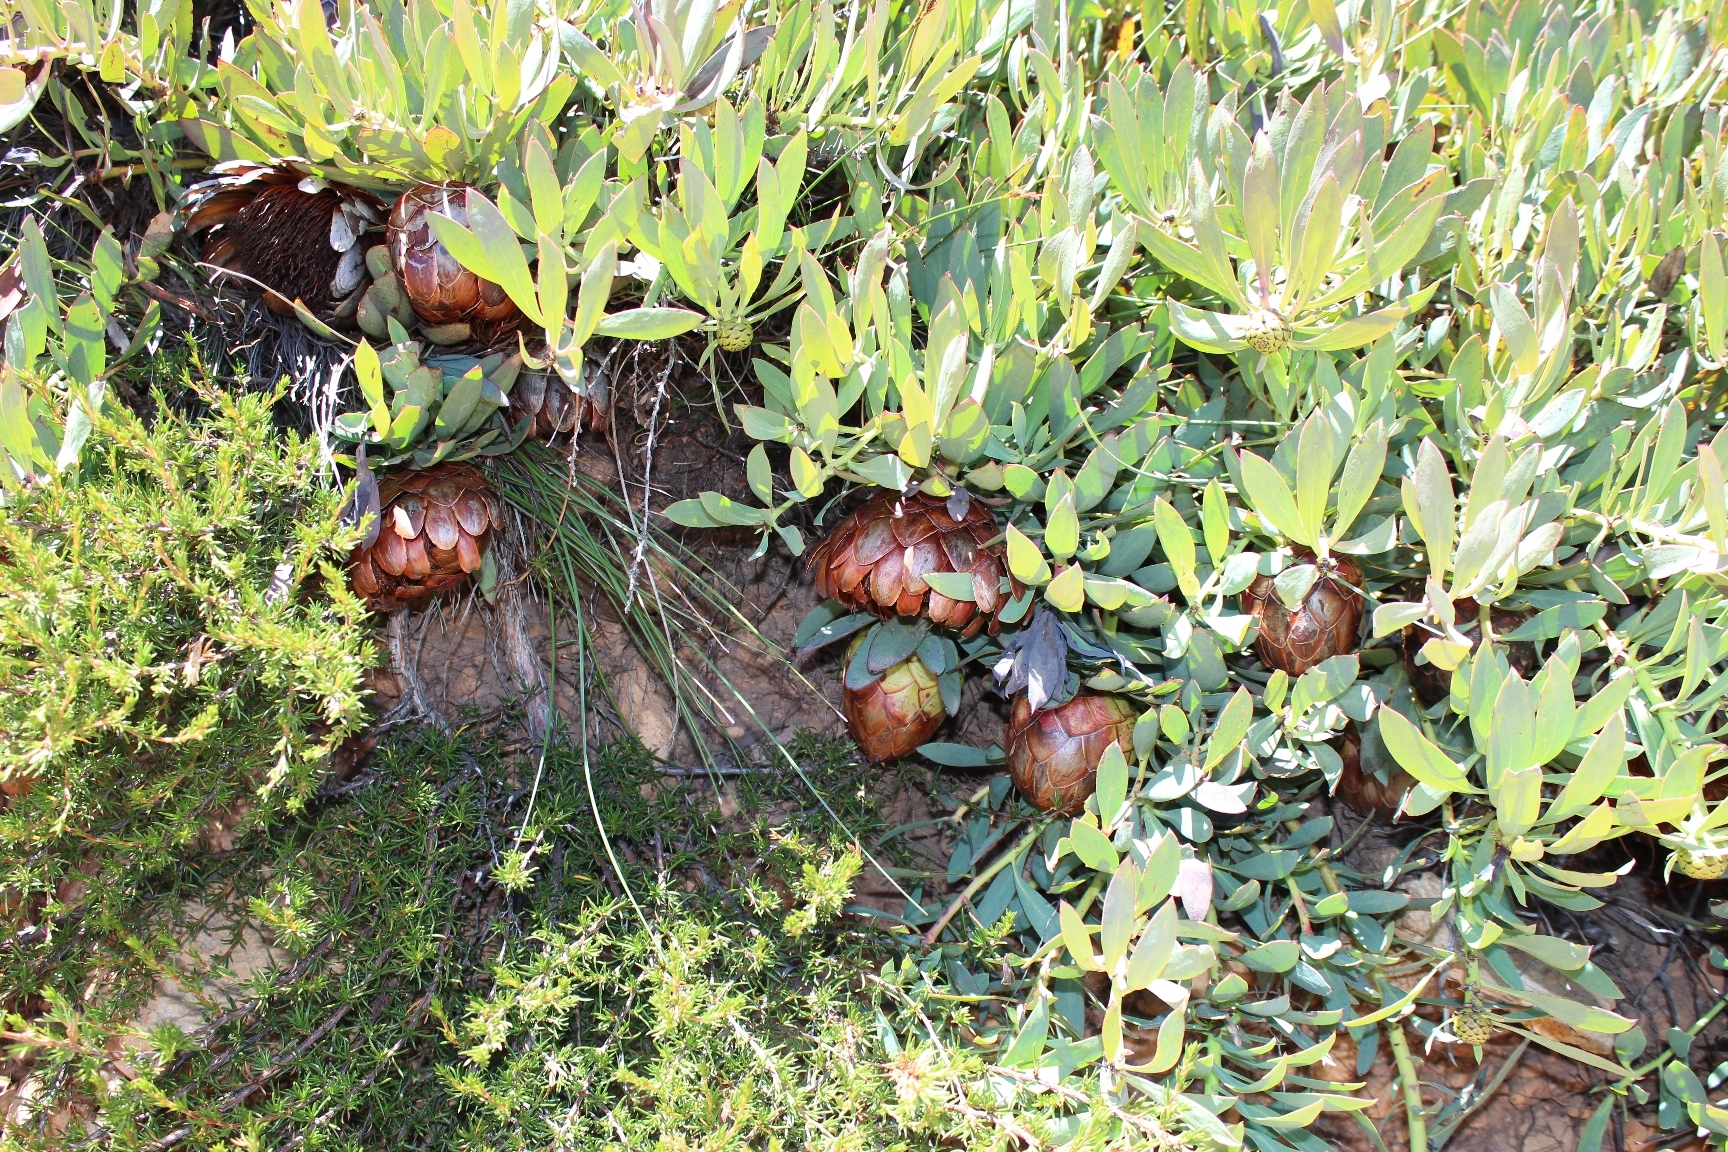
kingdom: Plantae
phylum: Tracheophyta
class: Magnoliopsida
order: Proteales
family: Proteaceae
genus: Protea
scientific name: Protea effusa
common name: Scarlet sugarbush
